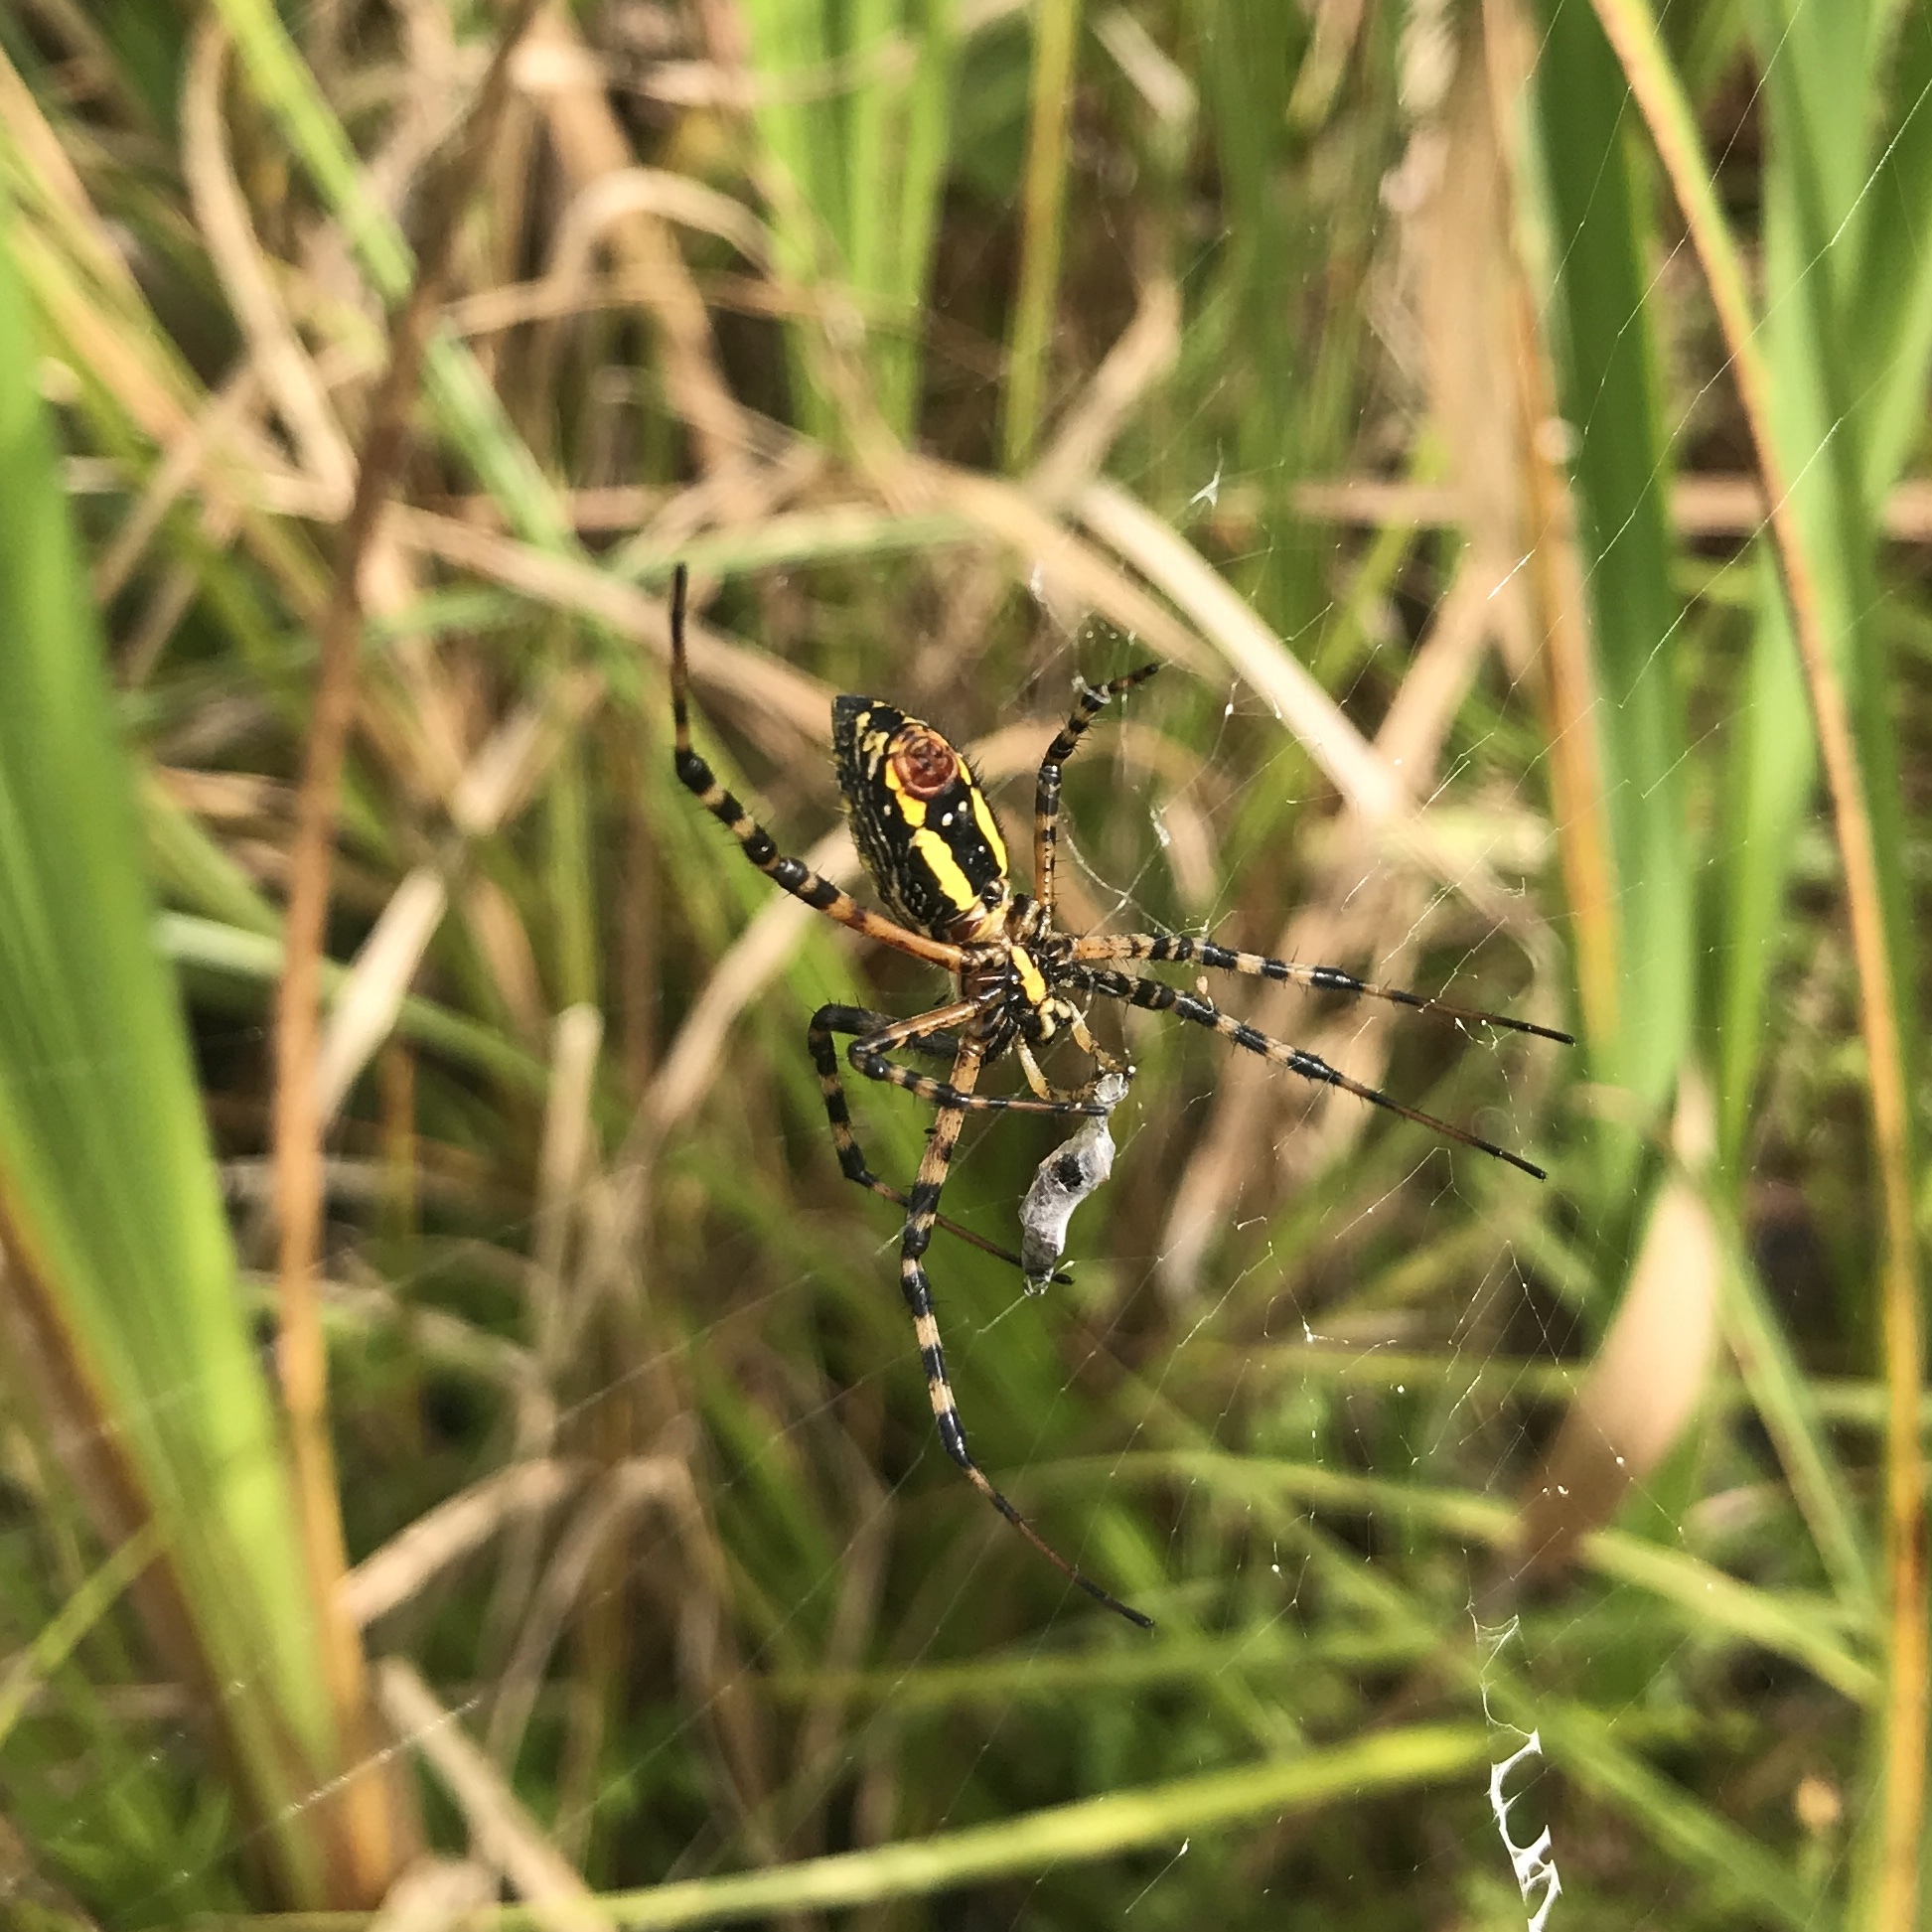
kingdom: Animalia
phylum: Arthropoda
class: Arachnida
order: Araneae
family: Araneidae
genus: Argiope
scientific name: Argiope trifasciata
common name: Banded garden spider
